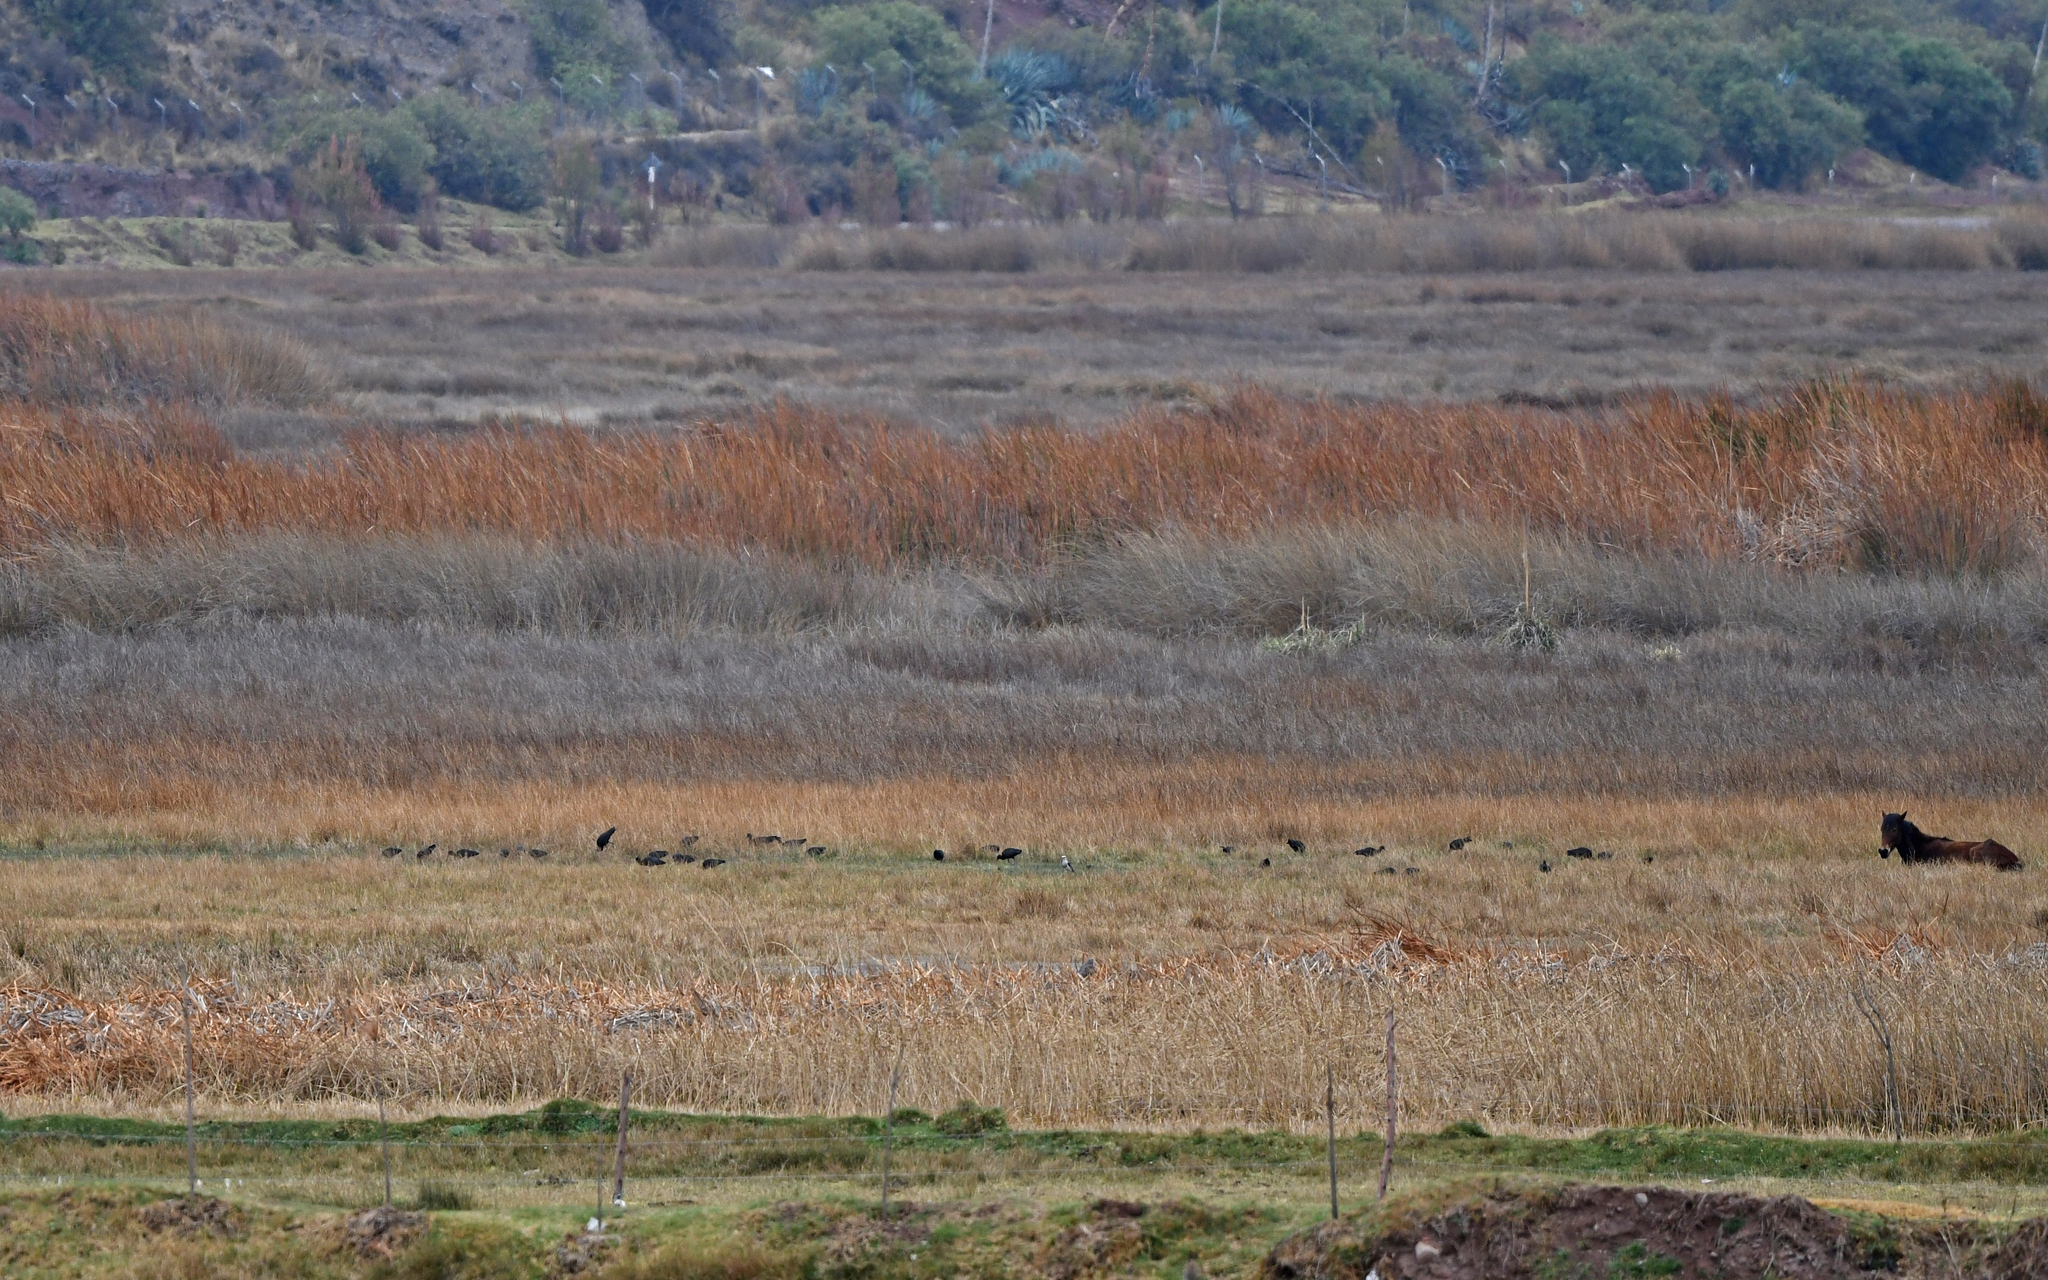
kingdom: Animalia
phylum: Chordata
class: Aves
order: Pelecaniformes
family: Threskiornithidae
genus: Plegadis
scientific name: Plegadis ridgwayi
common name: Puna ibis
